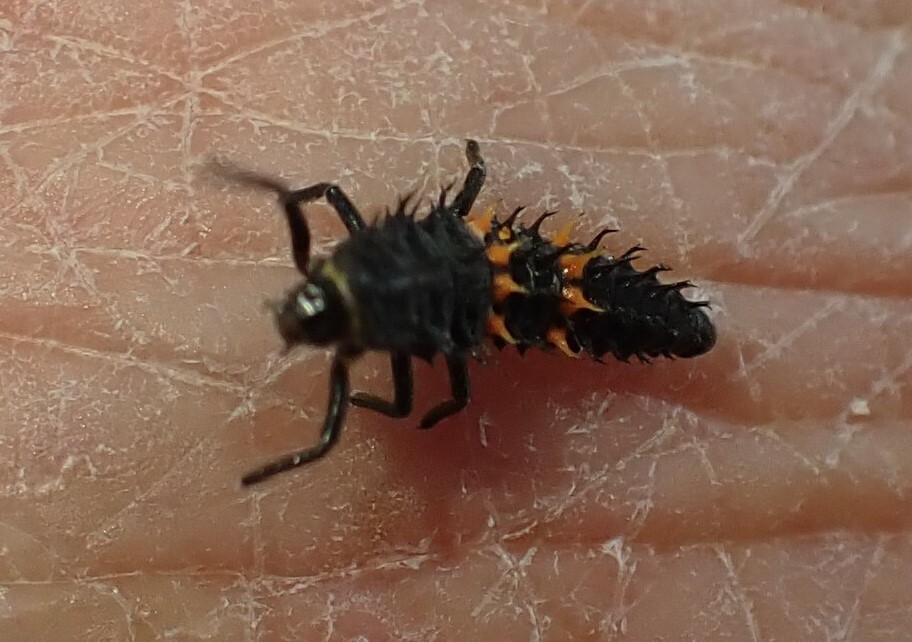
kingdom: Animalia
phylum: Arthropoda
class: Insecta
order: Coleoptera
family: Coccinellidae
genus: Harmonia
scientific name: Harmonia conformis
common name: Common spotted ladybird beetle
